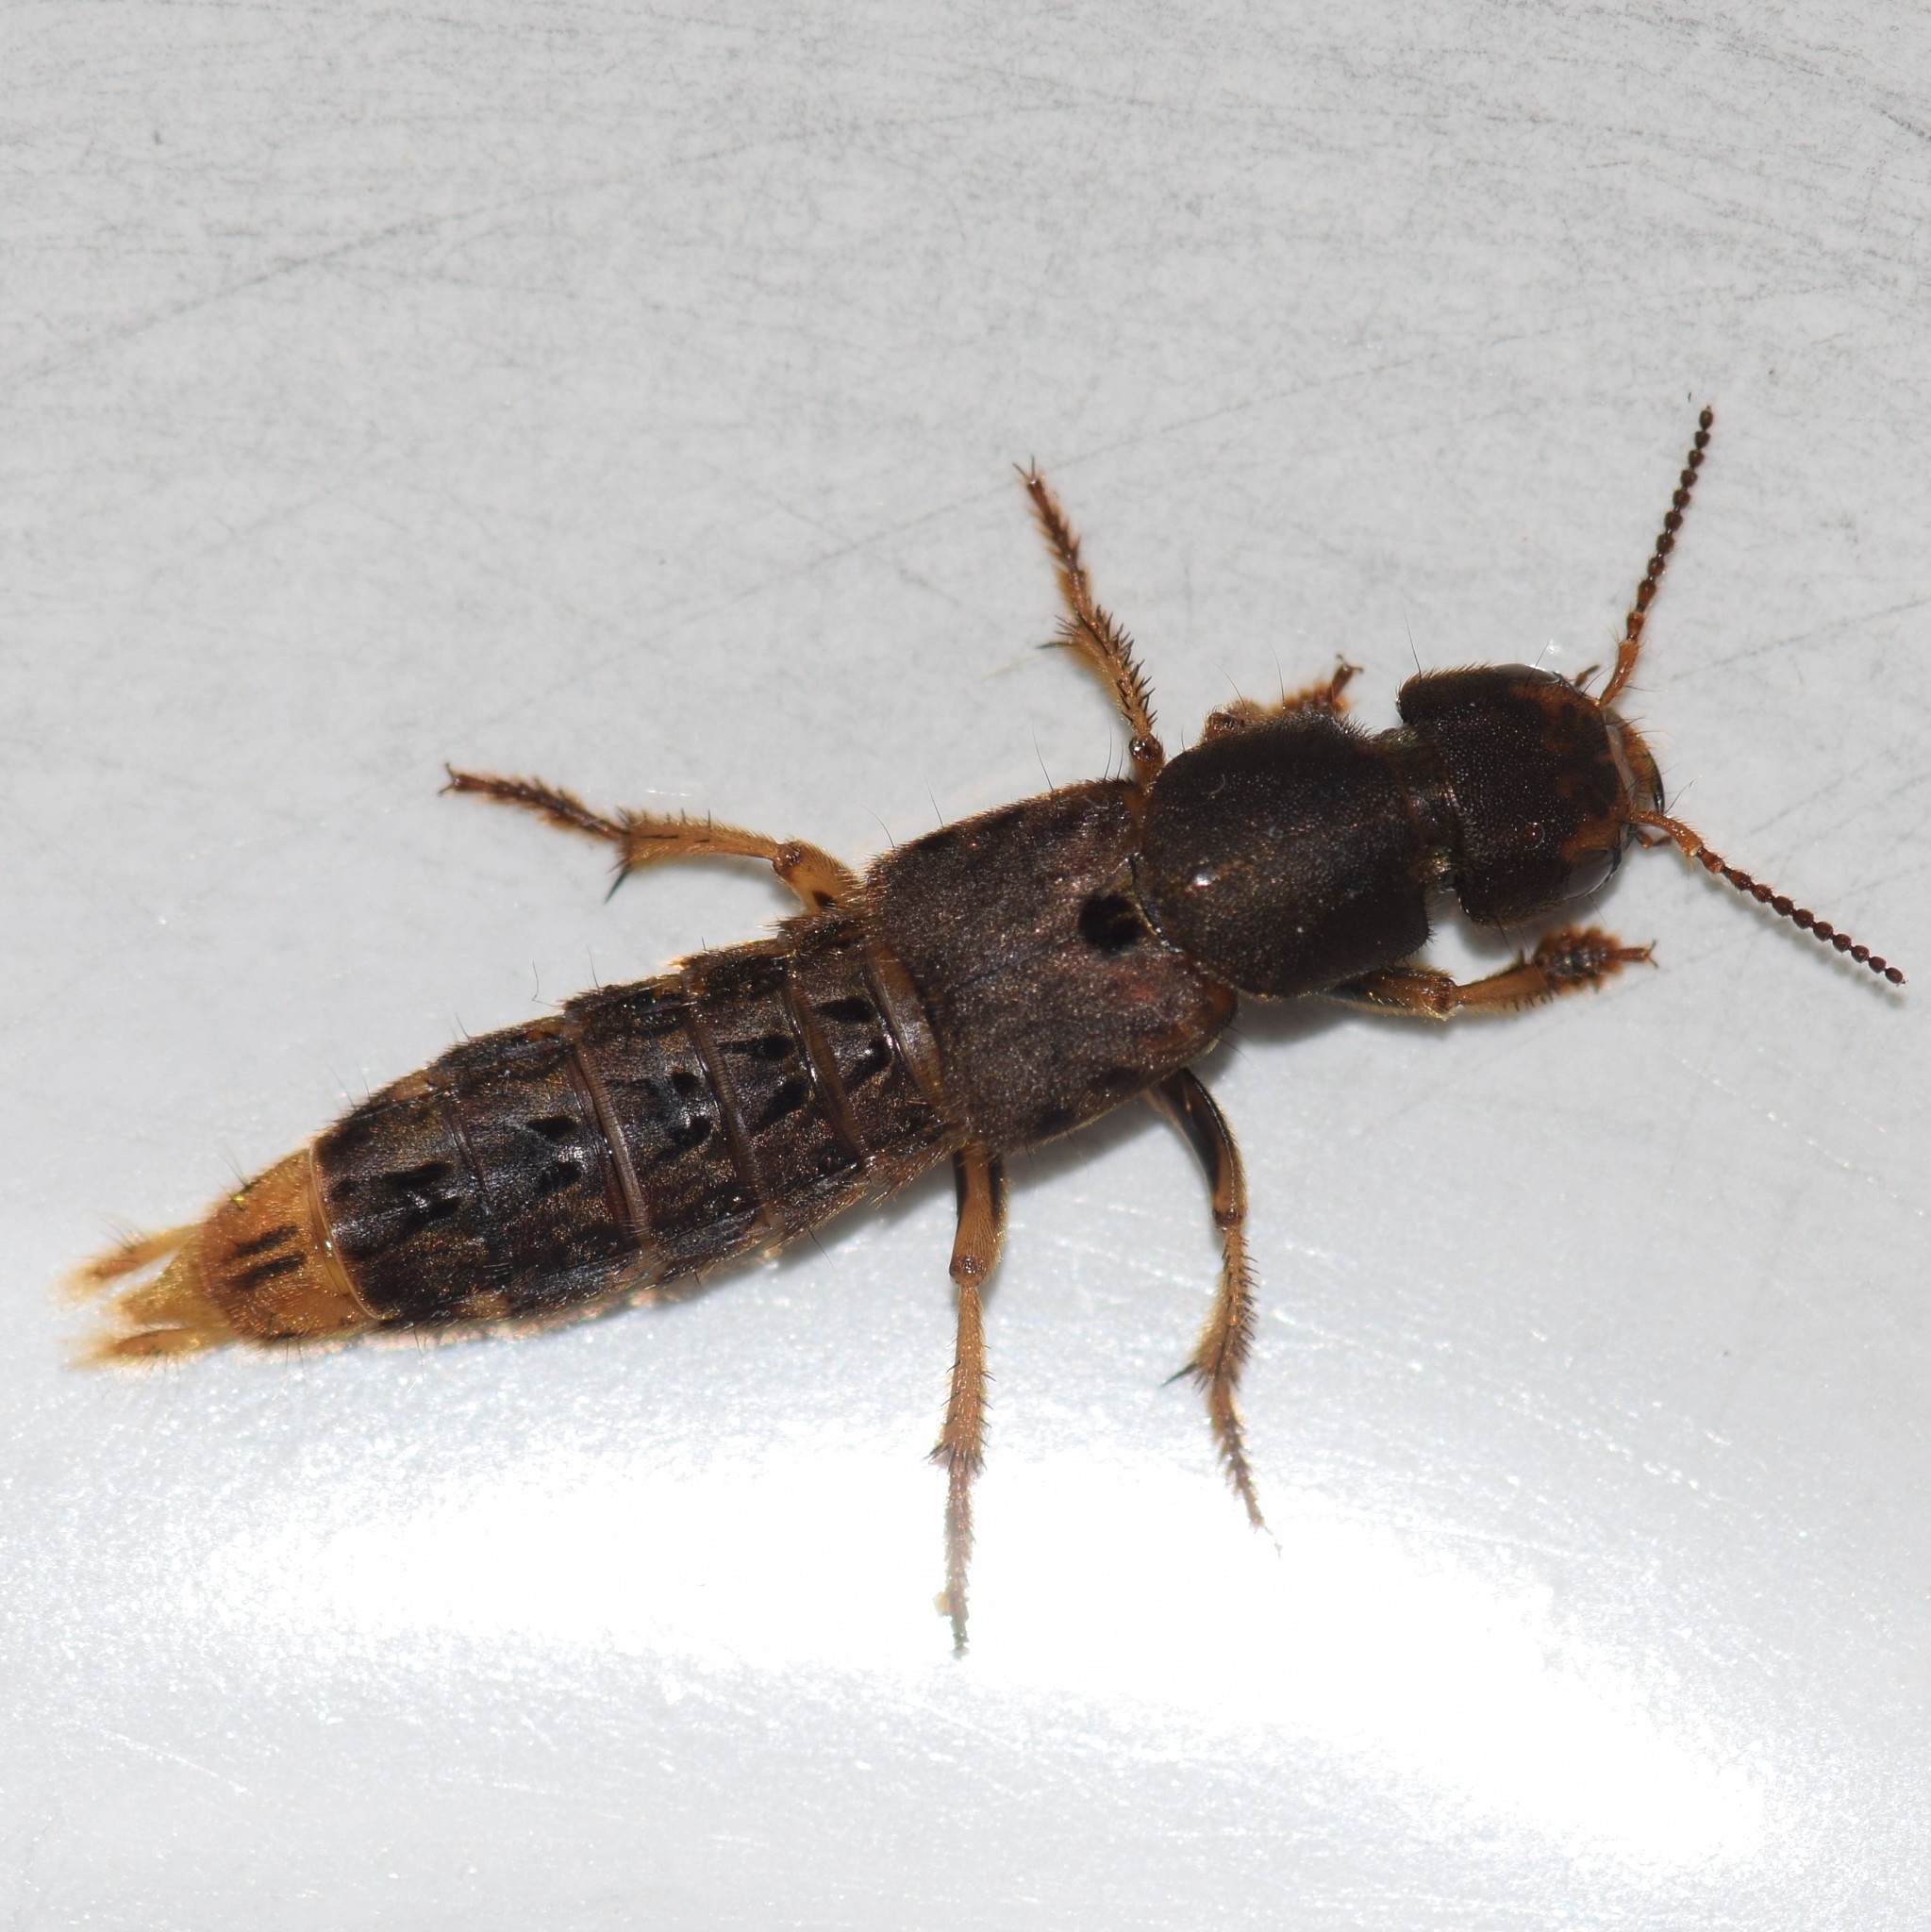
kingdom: Animalia
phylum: Arthropoda
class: Insecta
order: Coleoptera
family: Staphylinidae
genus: Platydracus
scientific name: Platydracus maculosus
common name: Brown rove beetle
